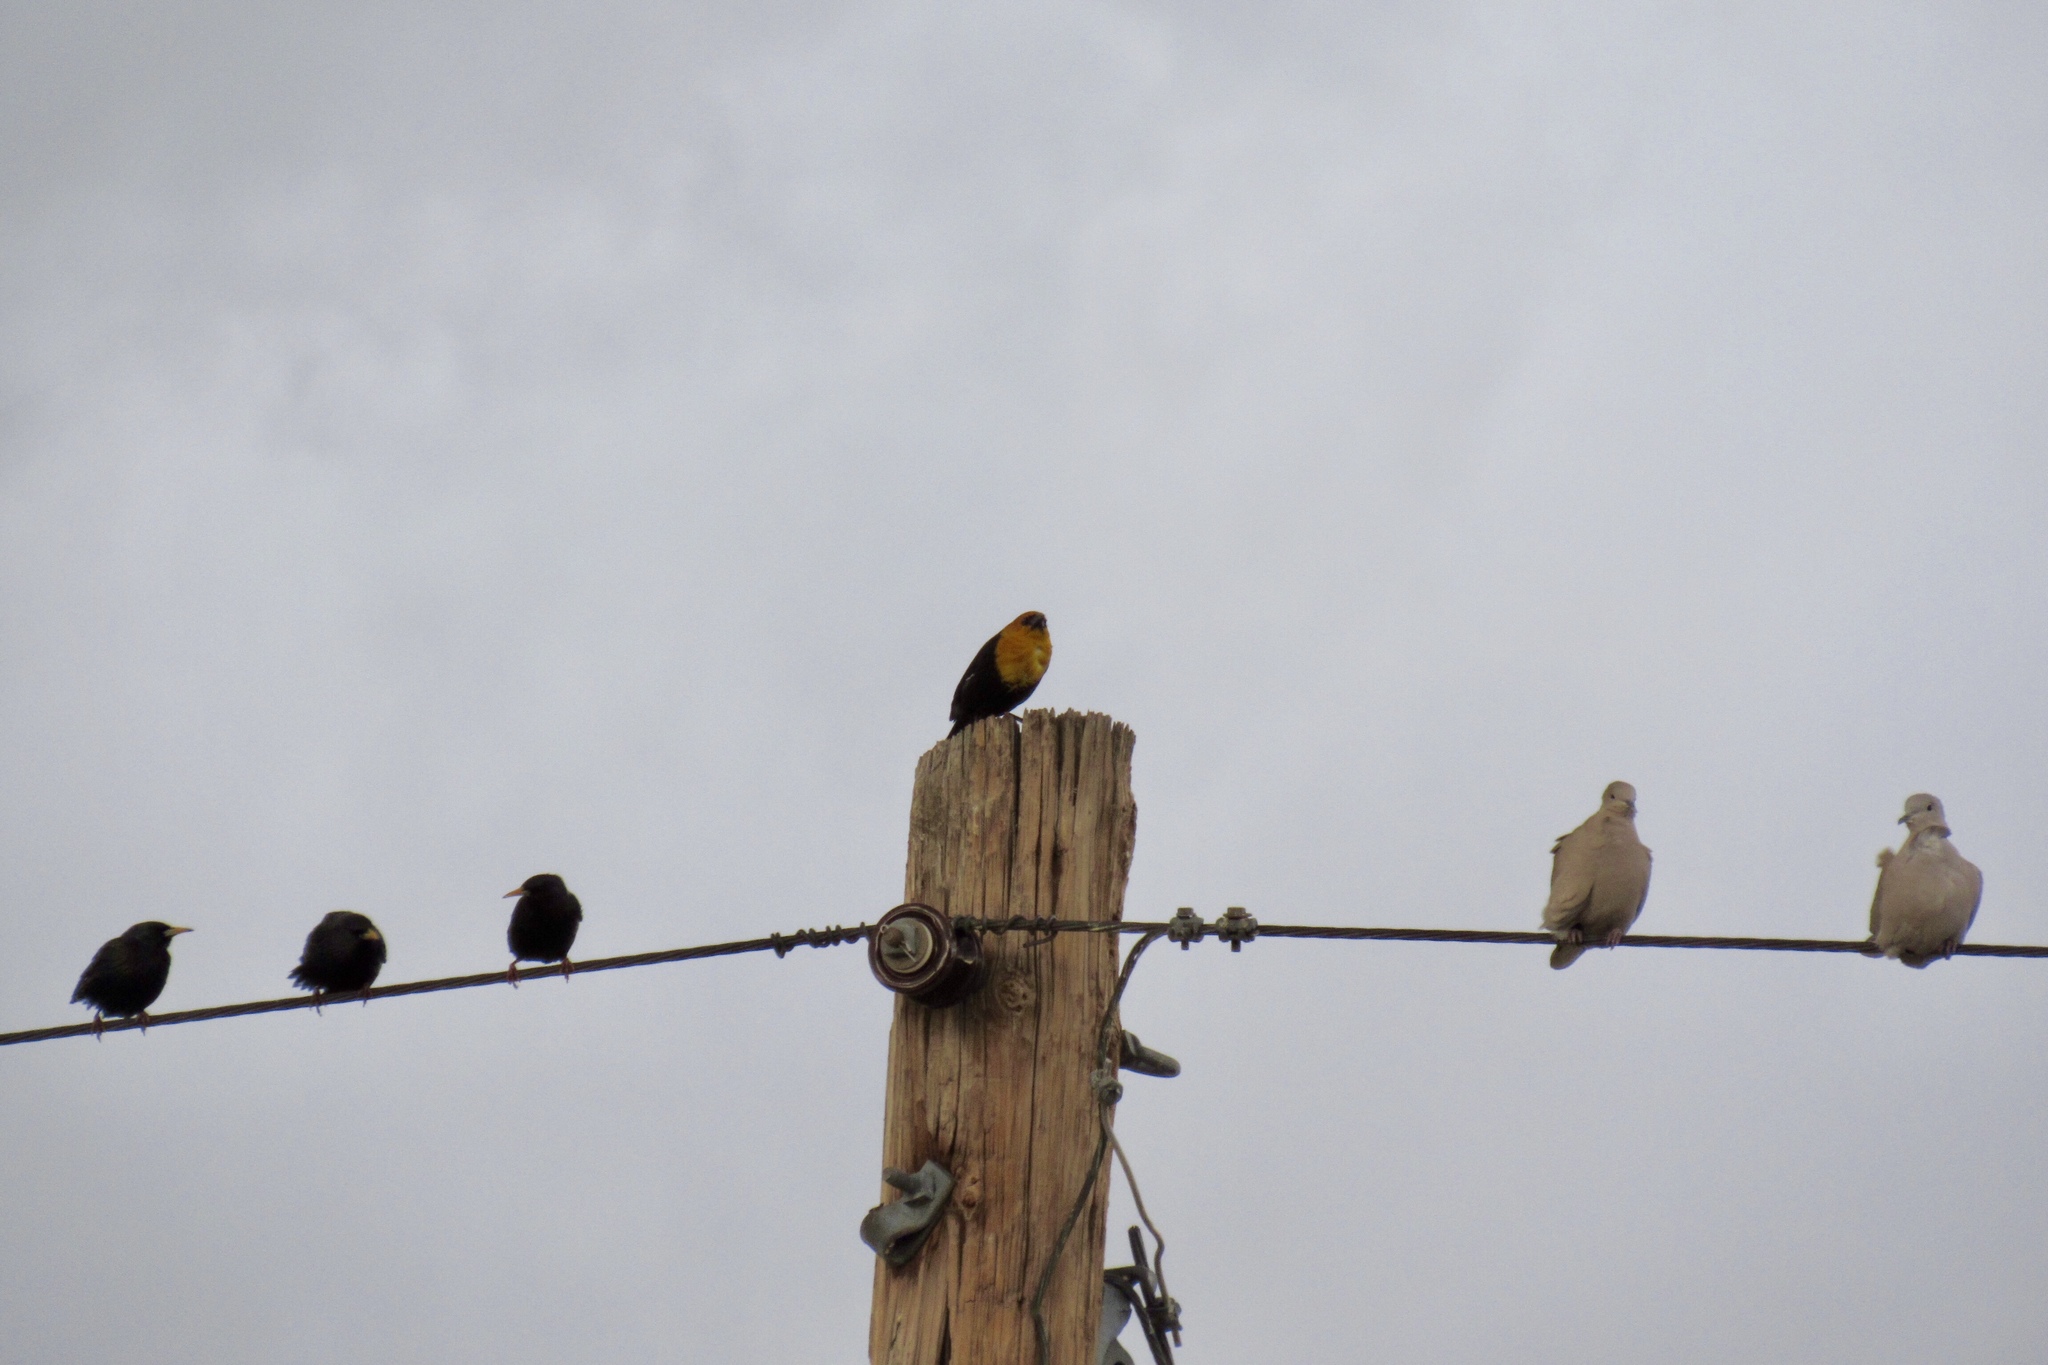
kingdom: Animalia
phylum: Chordata
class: Aves
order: Passeriformes
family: Icteridae
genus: Xanthocephalus
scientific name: Xanthocephalus xanthocephalus
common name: Yellow-headed blackbird
